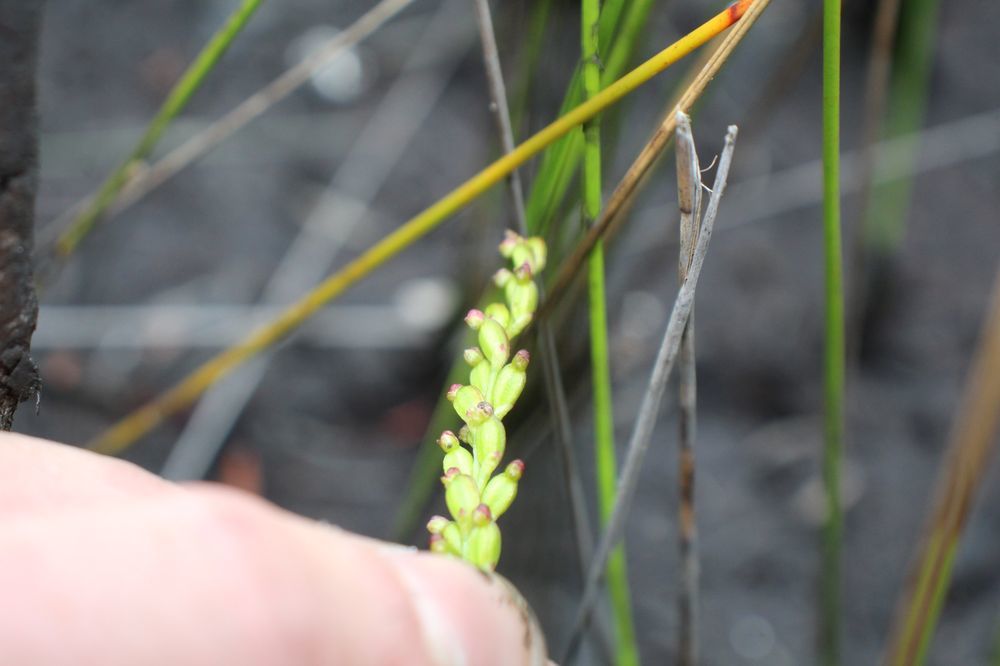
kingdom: Plantae
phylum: Tracheophyta
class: Liliopsida
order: Asparagales
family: Orchidaceae
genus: Microtis
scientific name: Microtis cupularis
